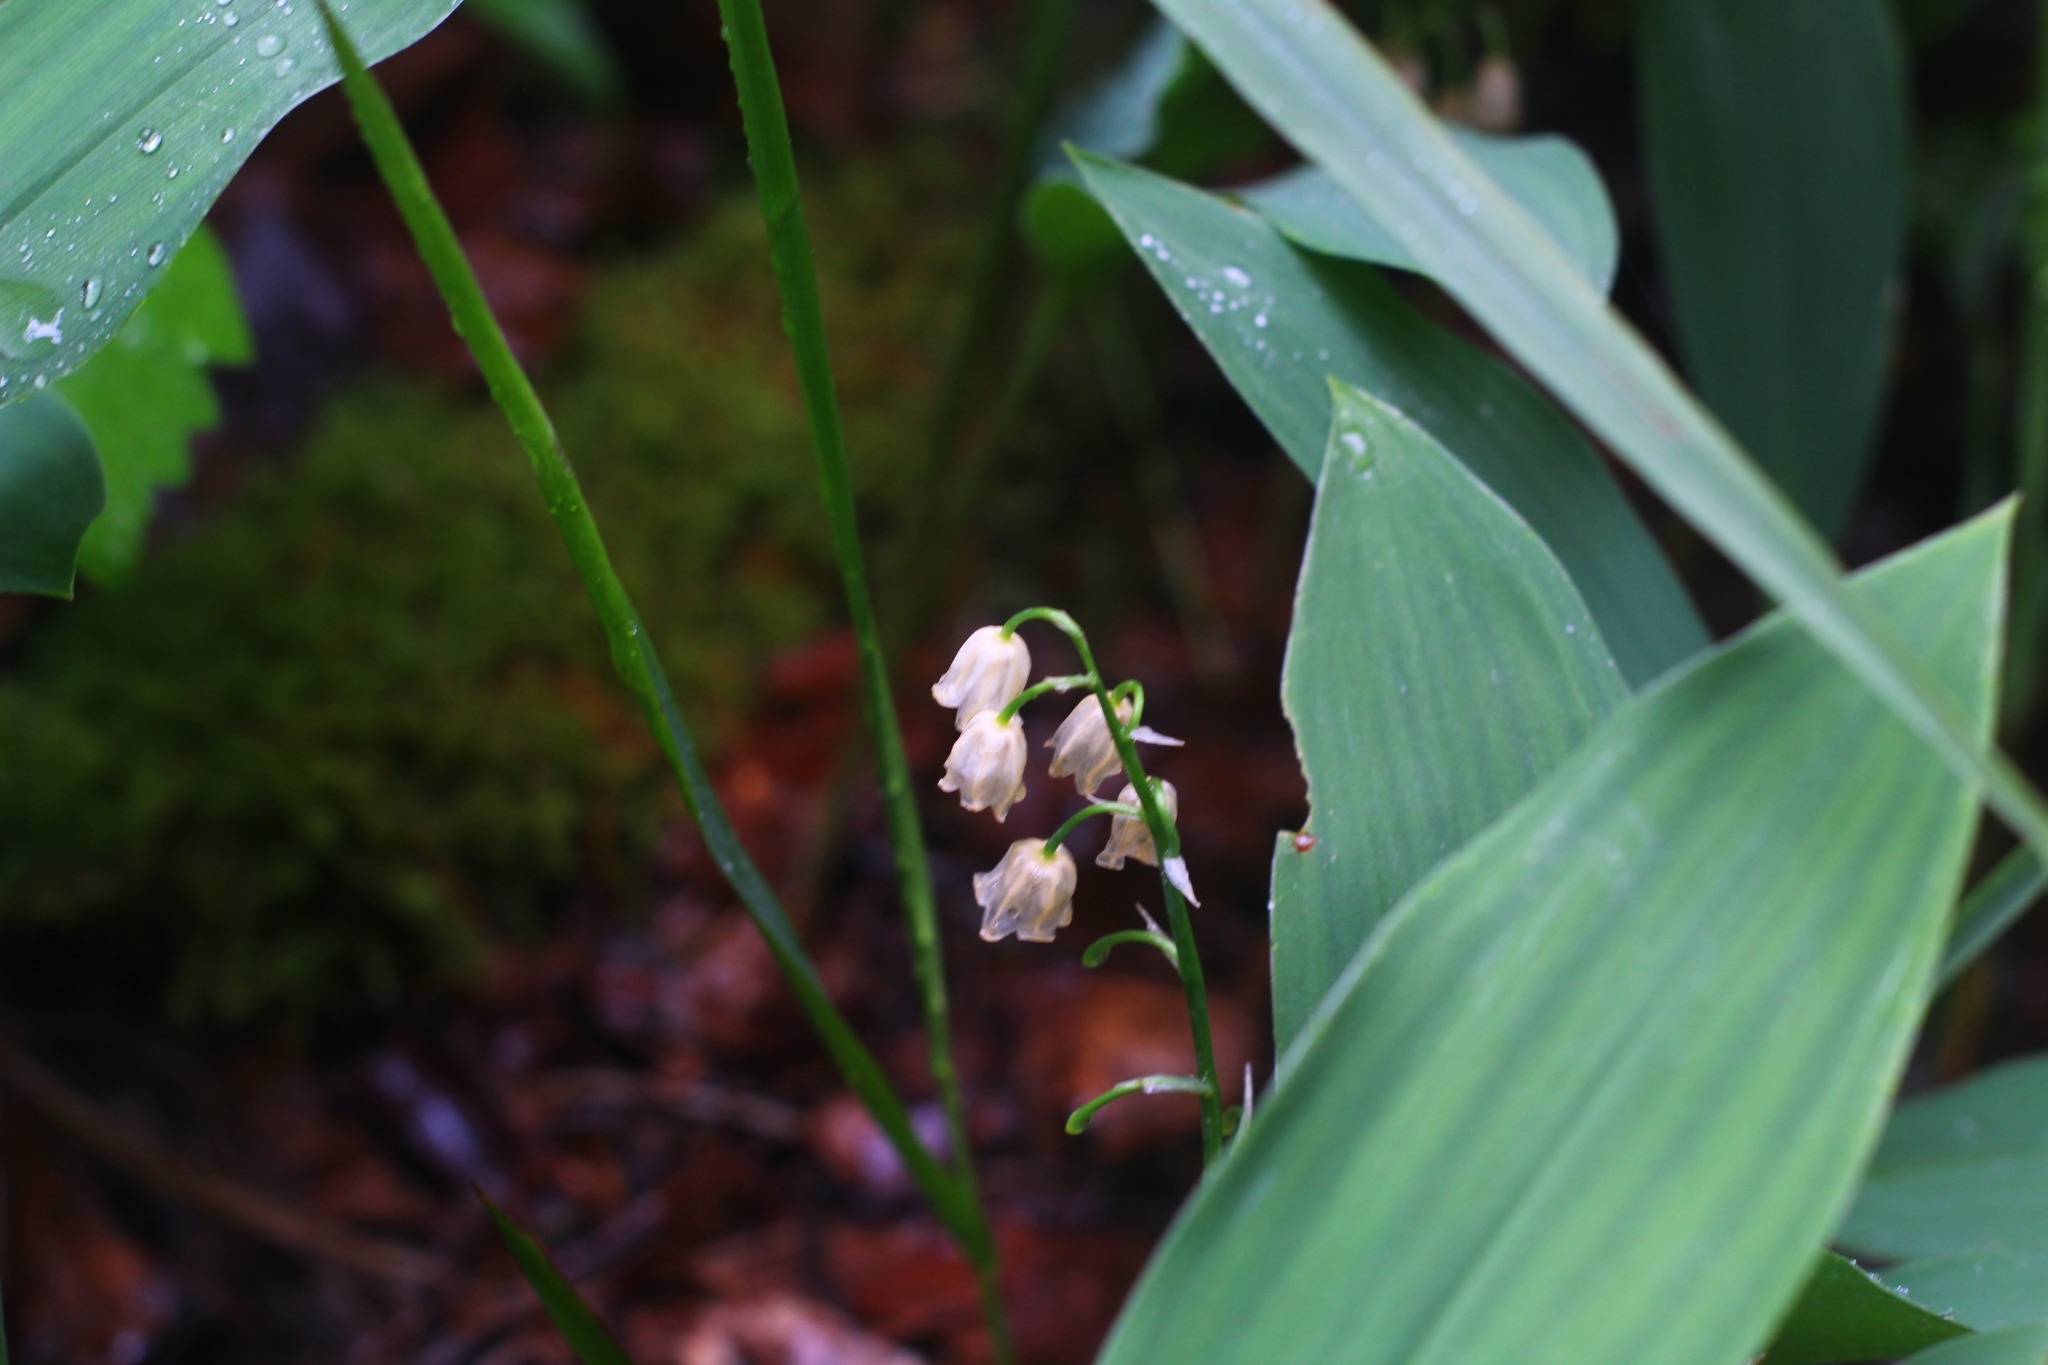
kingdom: Plantae
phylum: Tracheophyta
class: Liliopsida
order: Asparagales
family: Asparagaceae
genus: Convallaria
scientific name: Convallaria majalis
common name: Lily-of-the-valley
